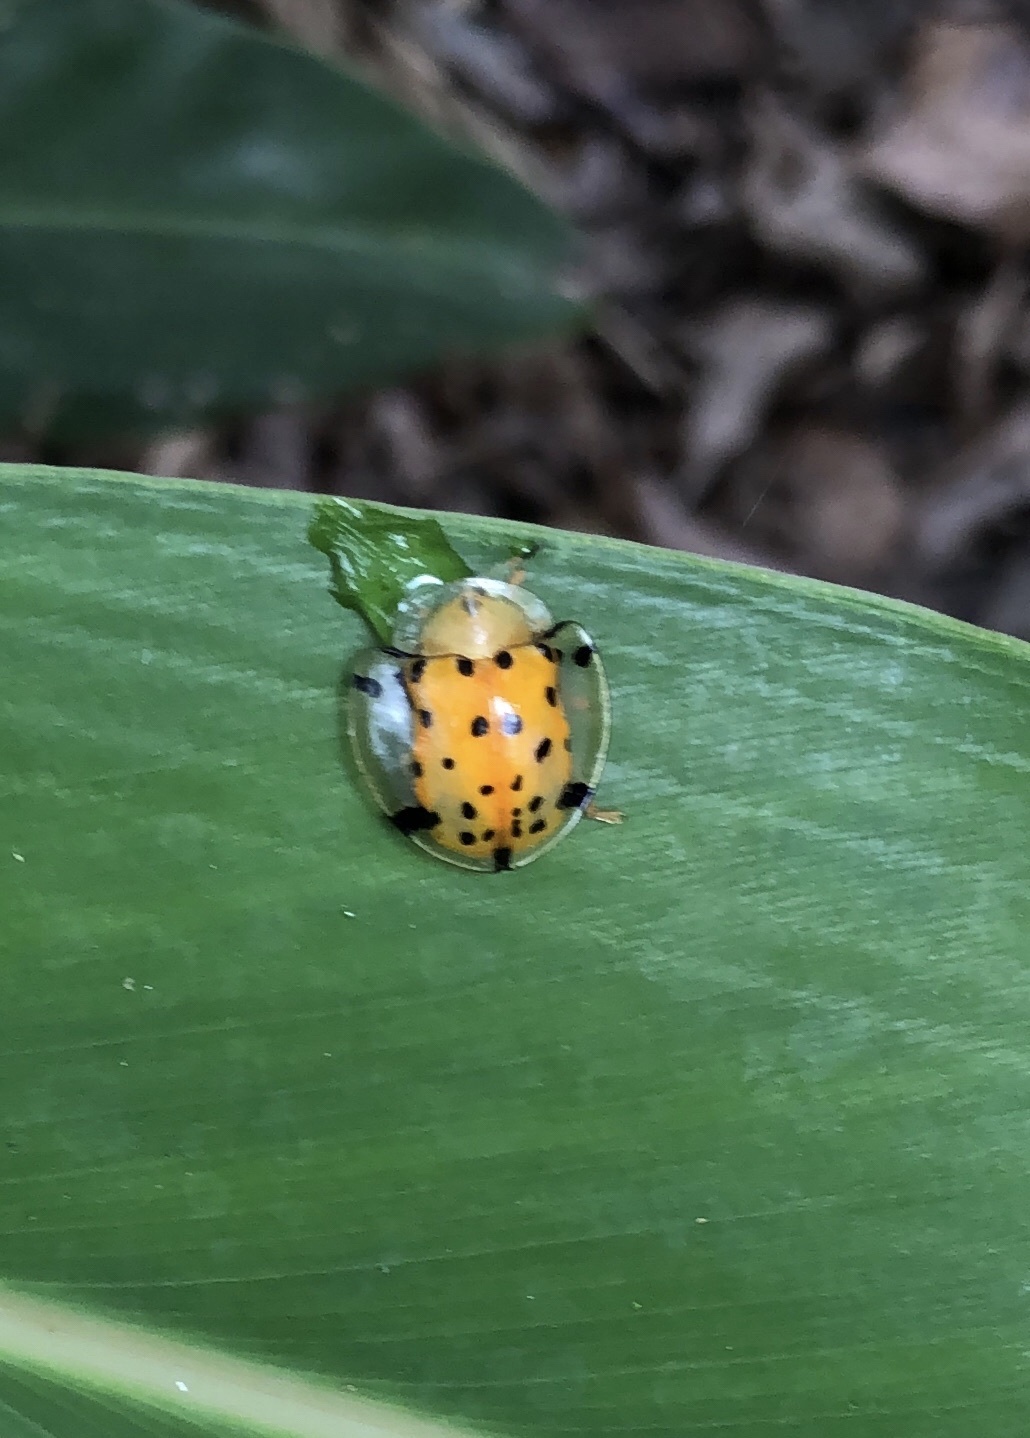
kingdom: Animalia
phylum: Arthropoda
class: Insecta
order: Coleoptera
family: Chrysomelidae
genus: Aspidimorpha
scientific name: Aspidimorpha miliaris
